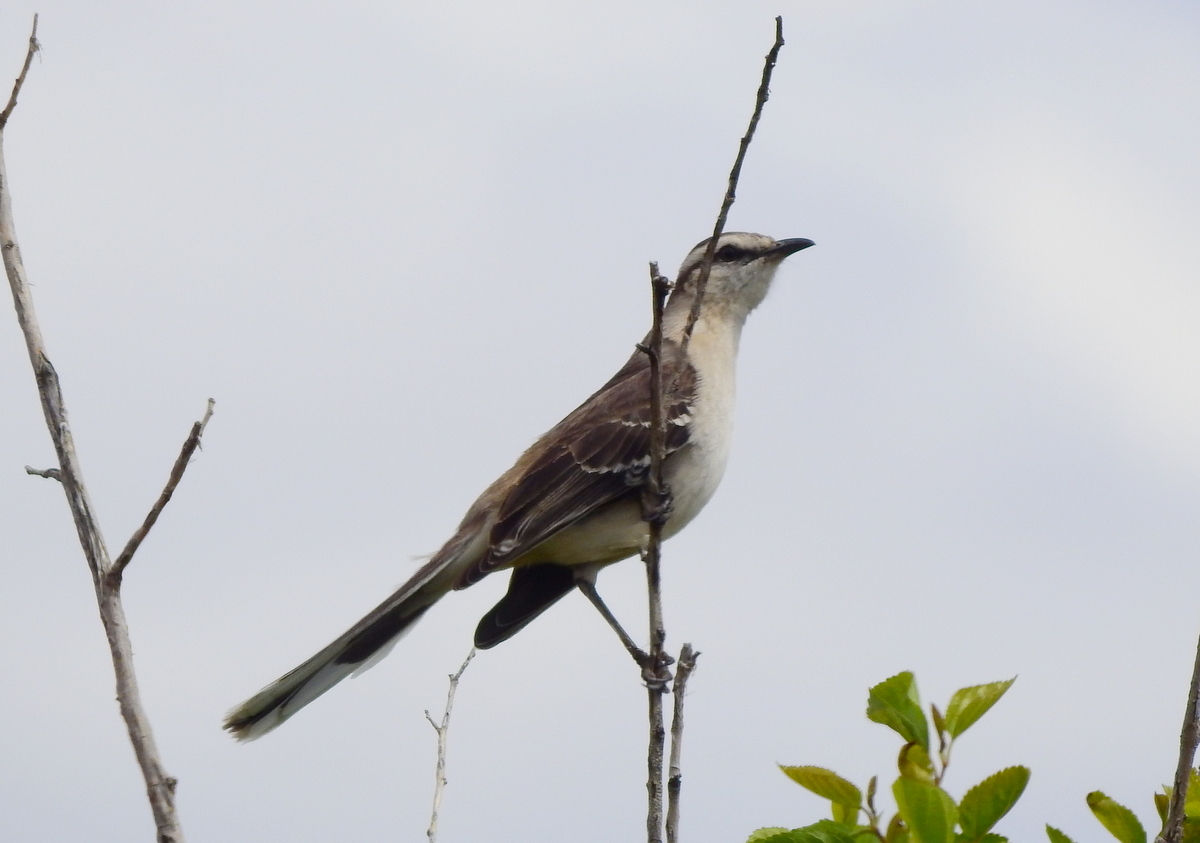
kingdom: Animalia
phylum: Chordata
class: Aves
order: Passeriformes
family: Mimidae
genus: Mimus
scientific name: Mimus saturninus
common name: Chalk-browed mockingbird
